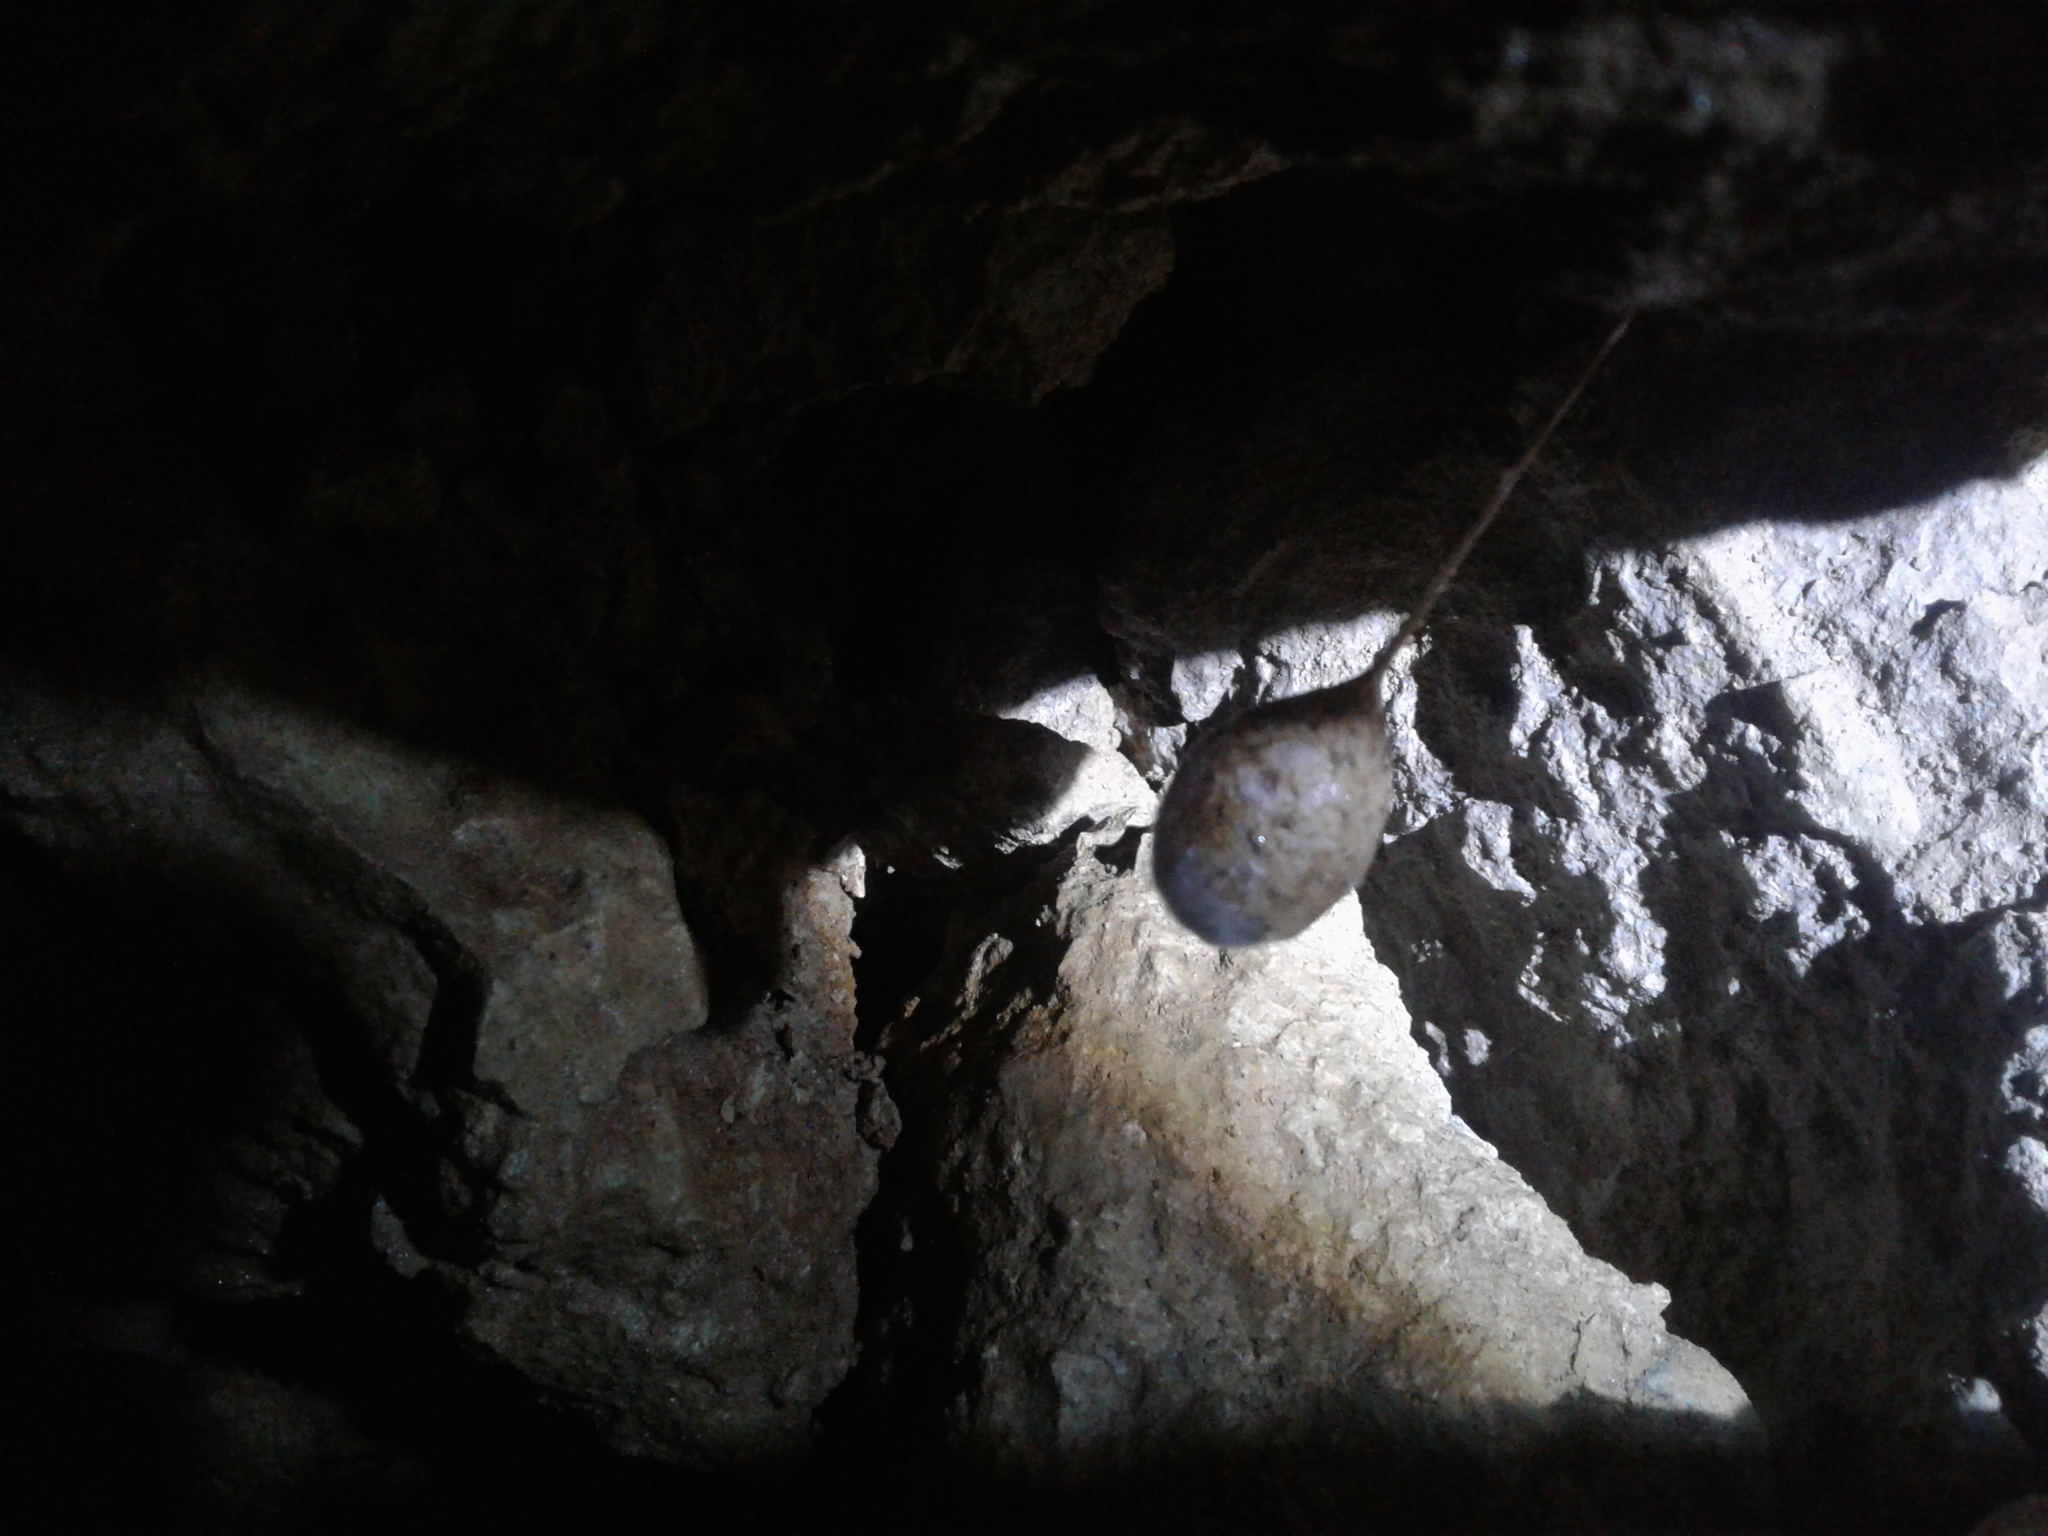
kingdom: Animalia
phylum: Arthropoda
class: Arachnida
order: Araneae
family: Gradungulidae
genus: Spelungula
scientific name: Spelungula cavernicola
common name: Nelson cave spider
